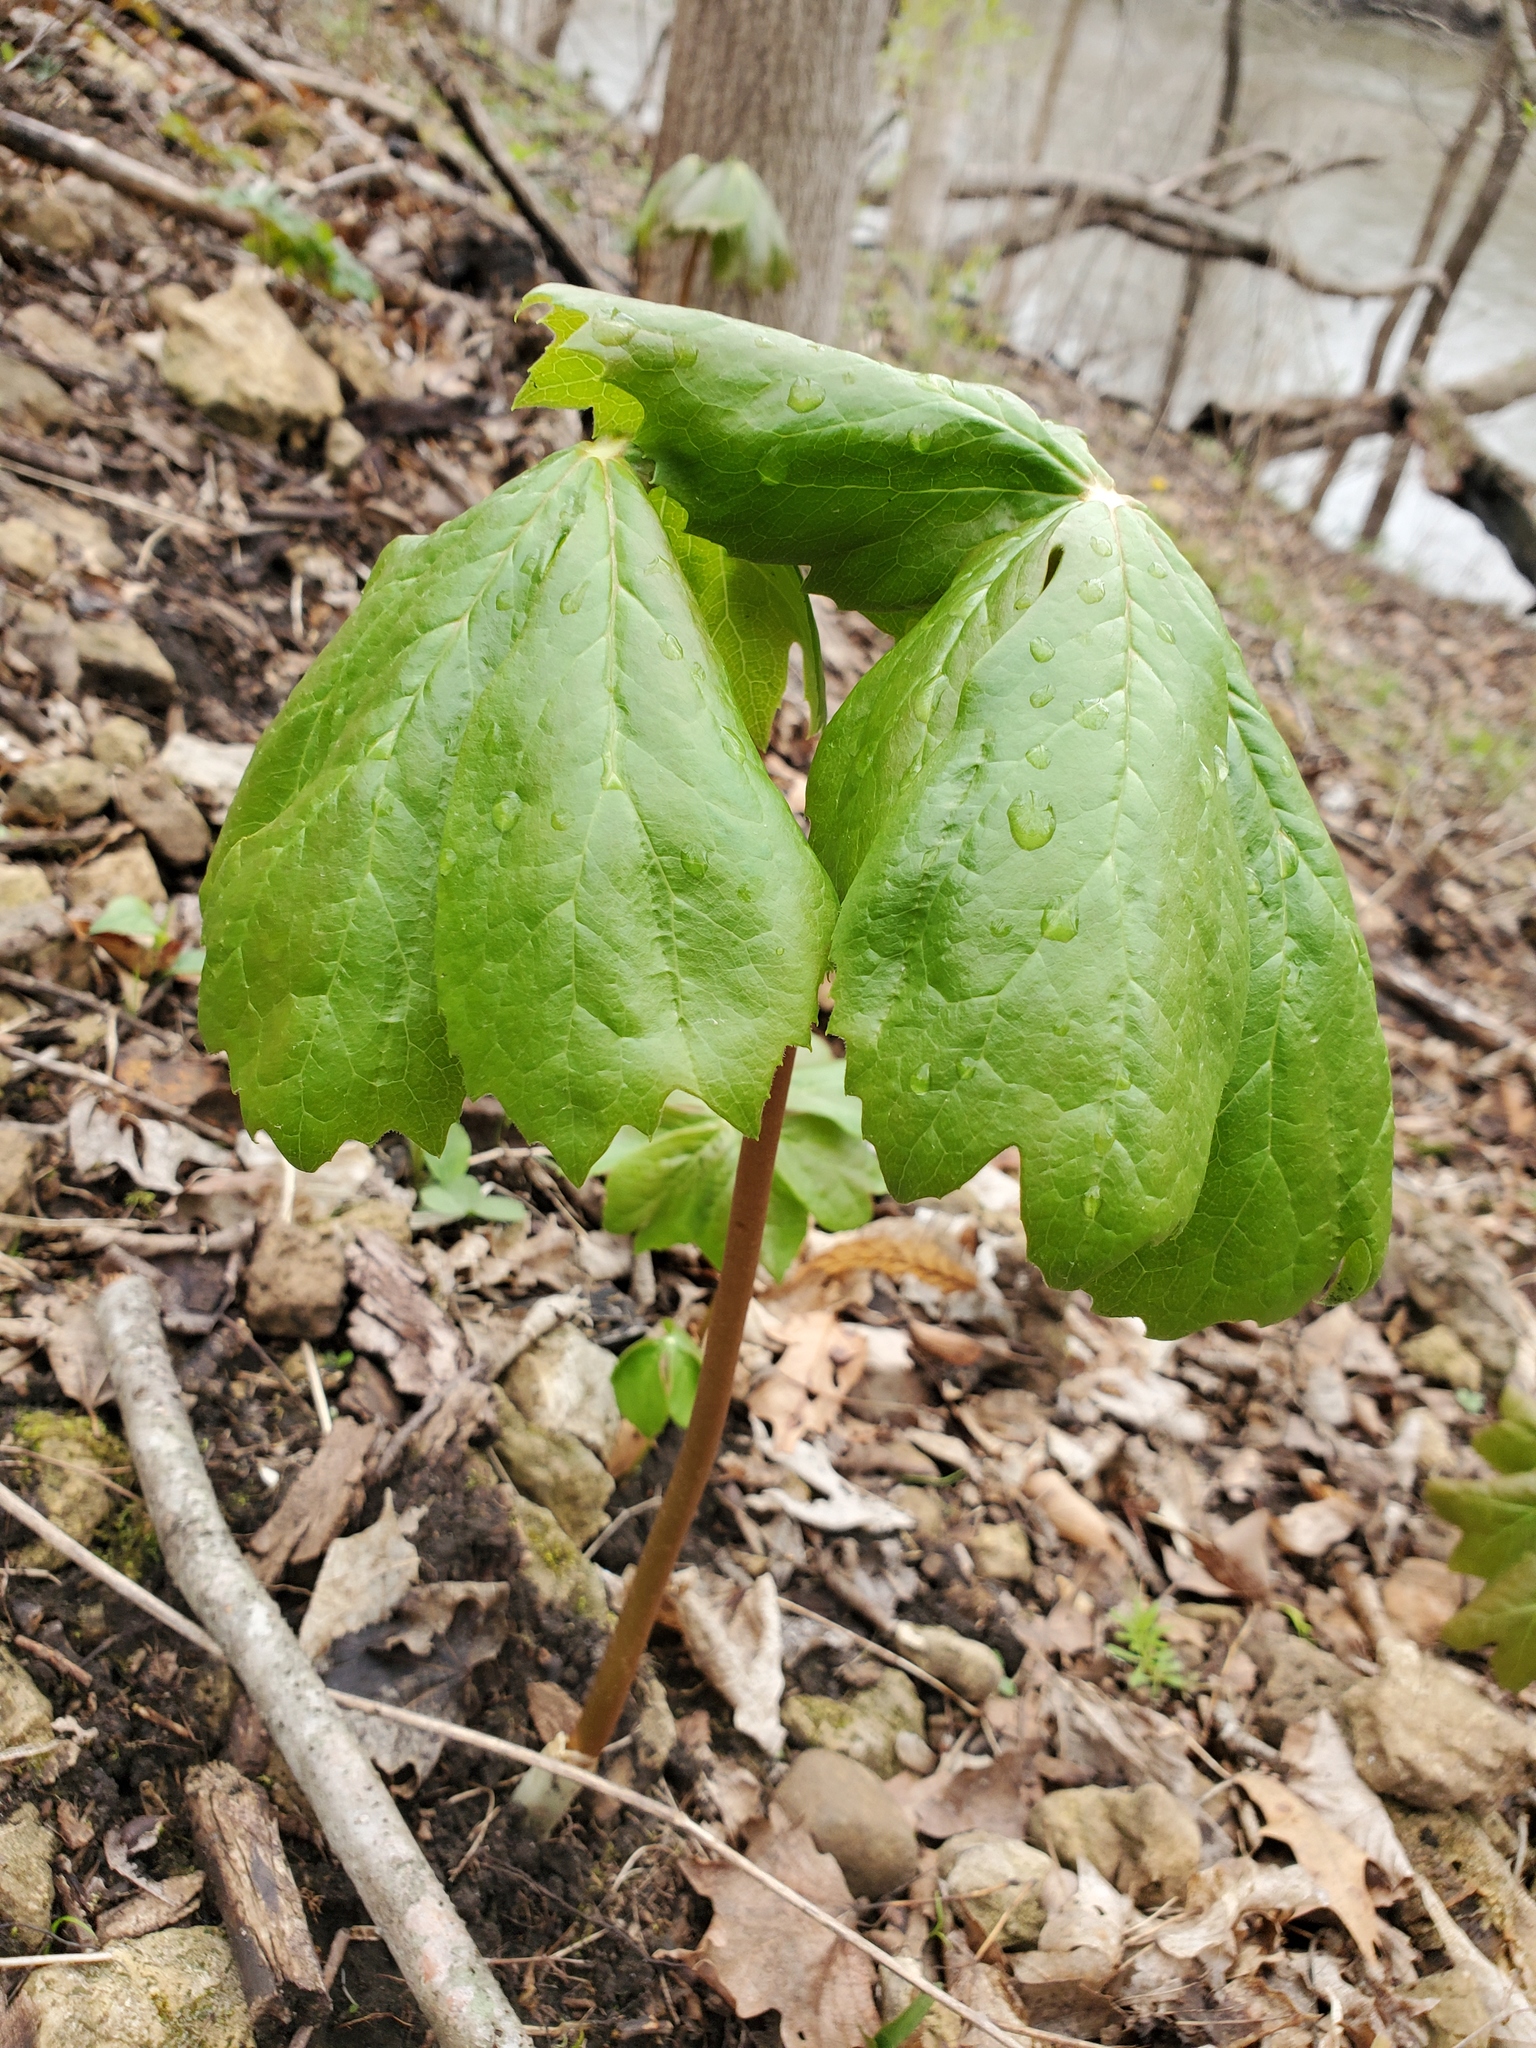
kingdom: Plantae
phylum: Tracheophyta
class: Magnoliopsida
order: Ranunculales
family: Berberidaceae
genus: Podophyllum
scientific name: Podophyllum peltatum
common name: Wild mandrake
